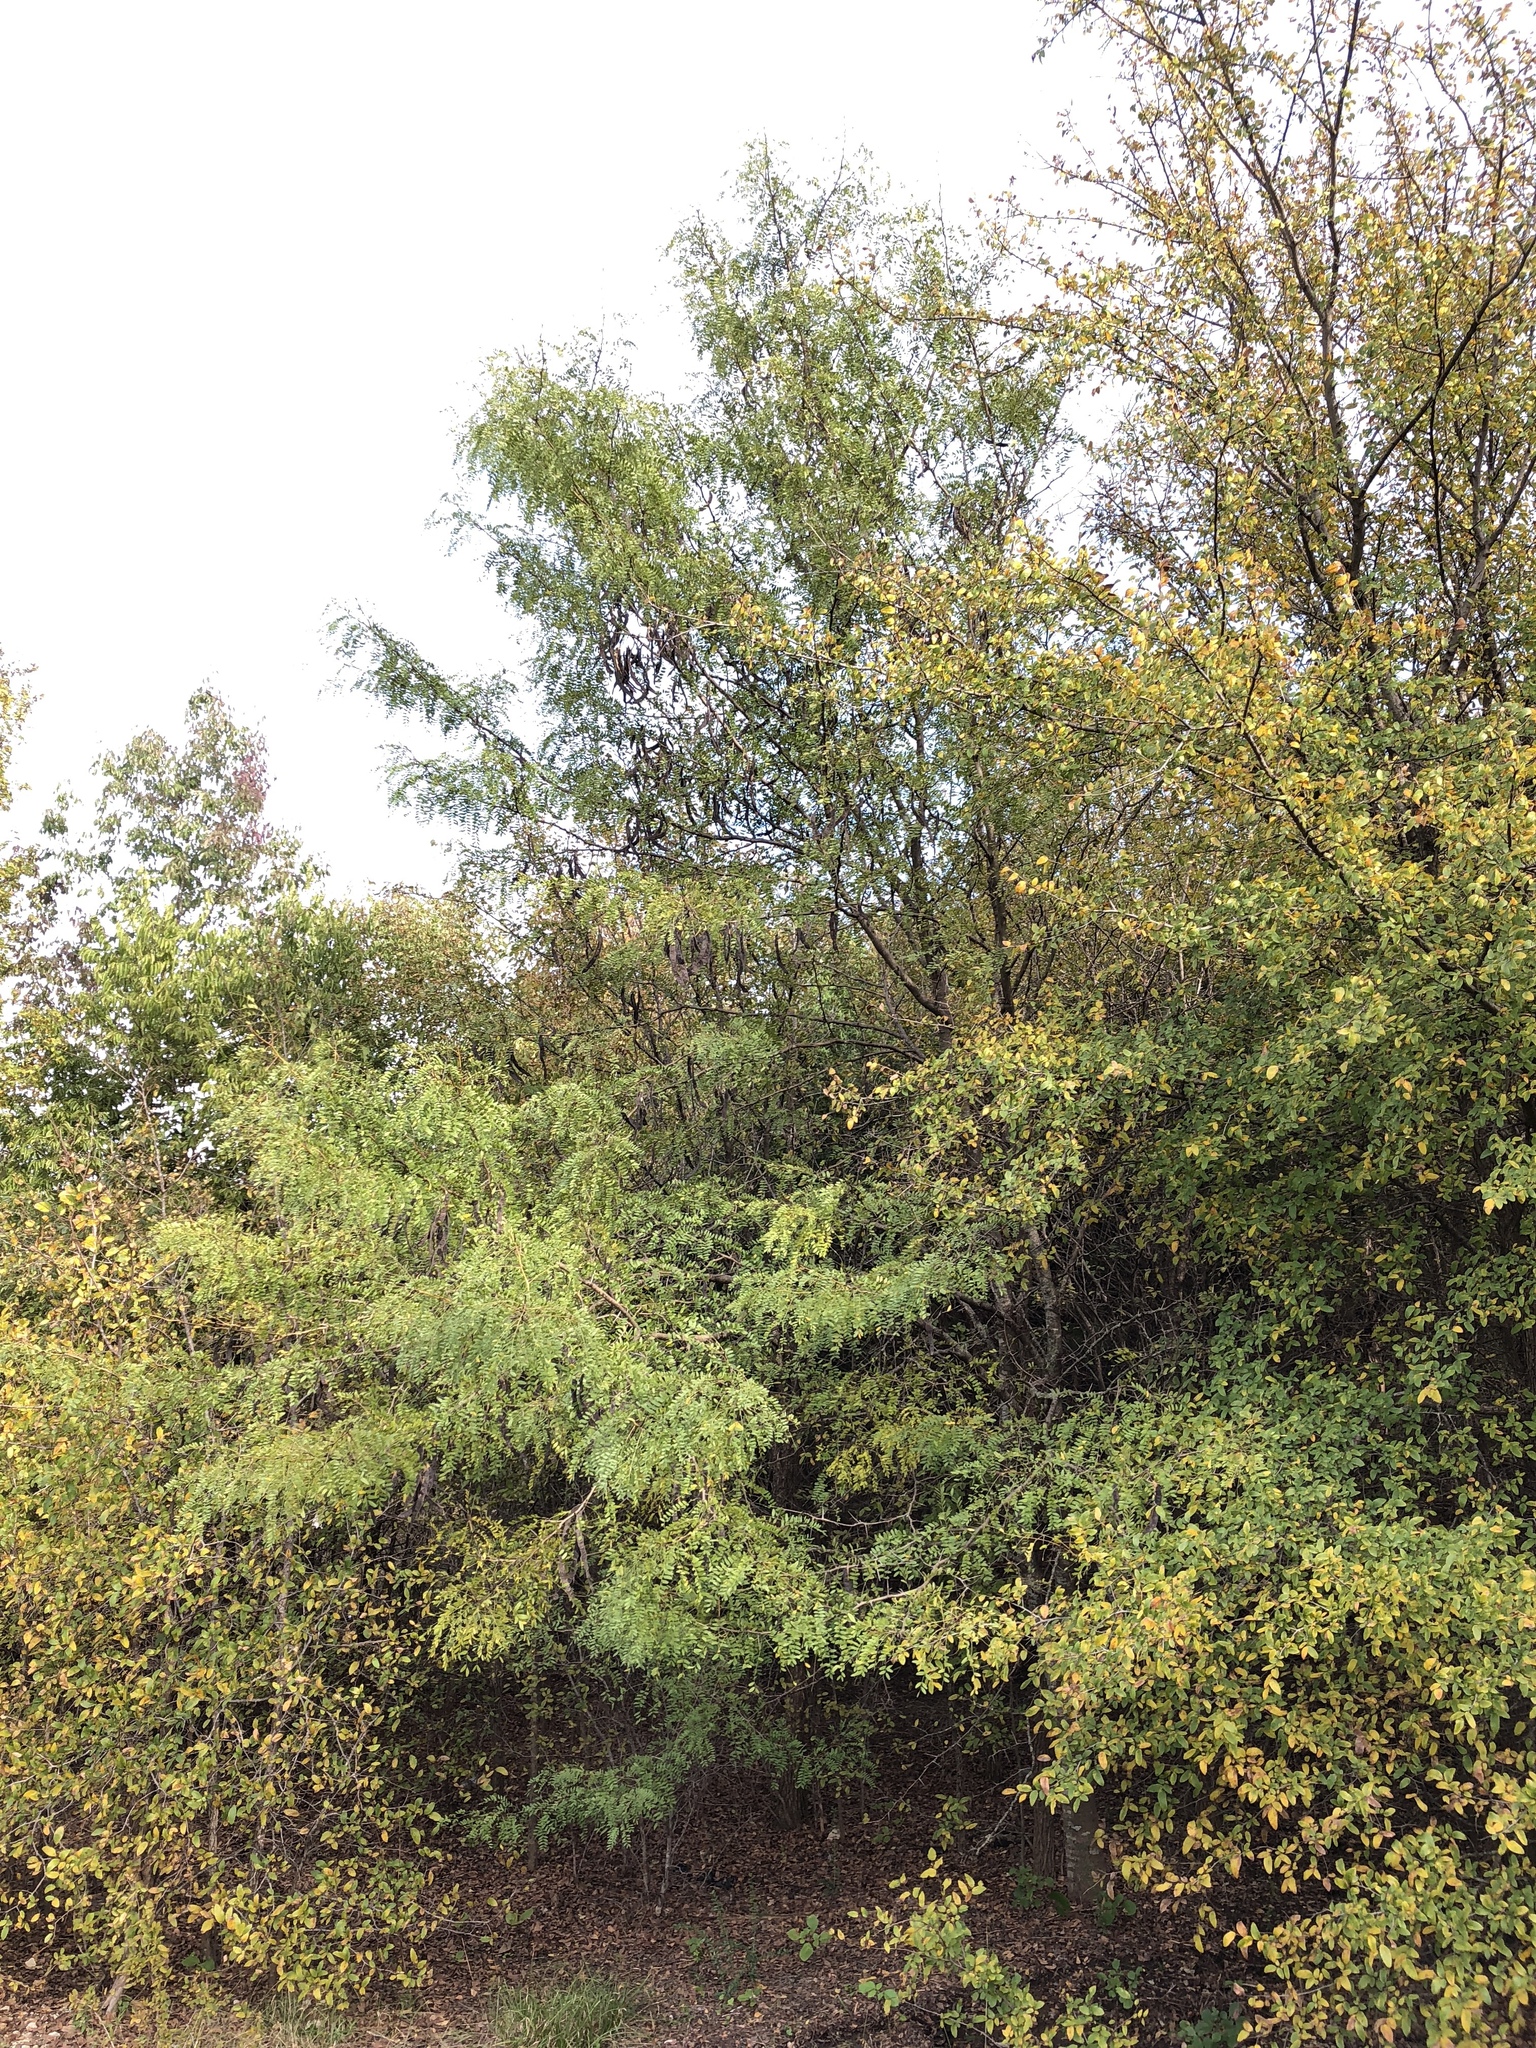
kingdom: Plantae
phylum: Tracheophyta
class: Magnoliopsida
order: Fabales
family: Fabaceae
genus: Gleditsia
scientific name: Gleditsia triacanthos
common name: Common honeylocust
